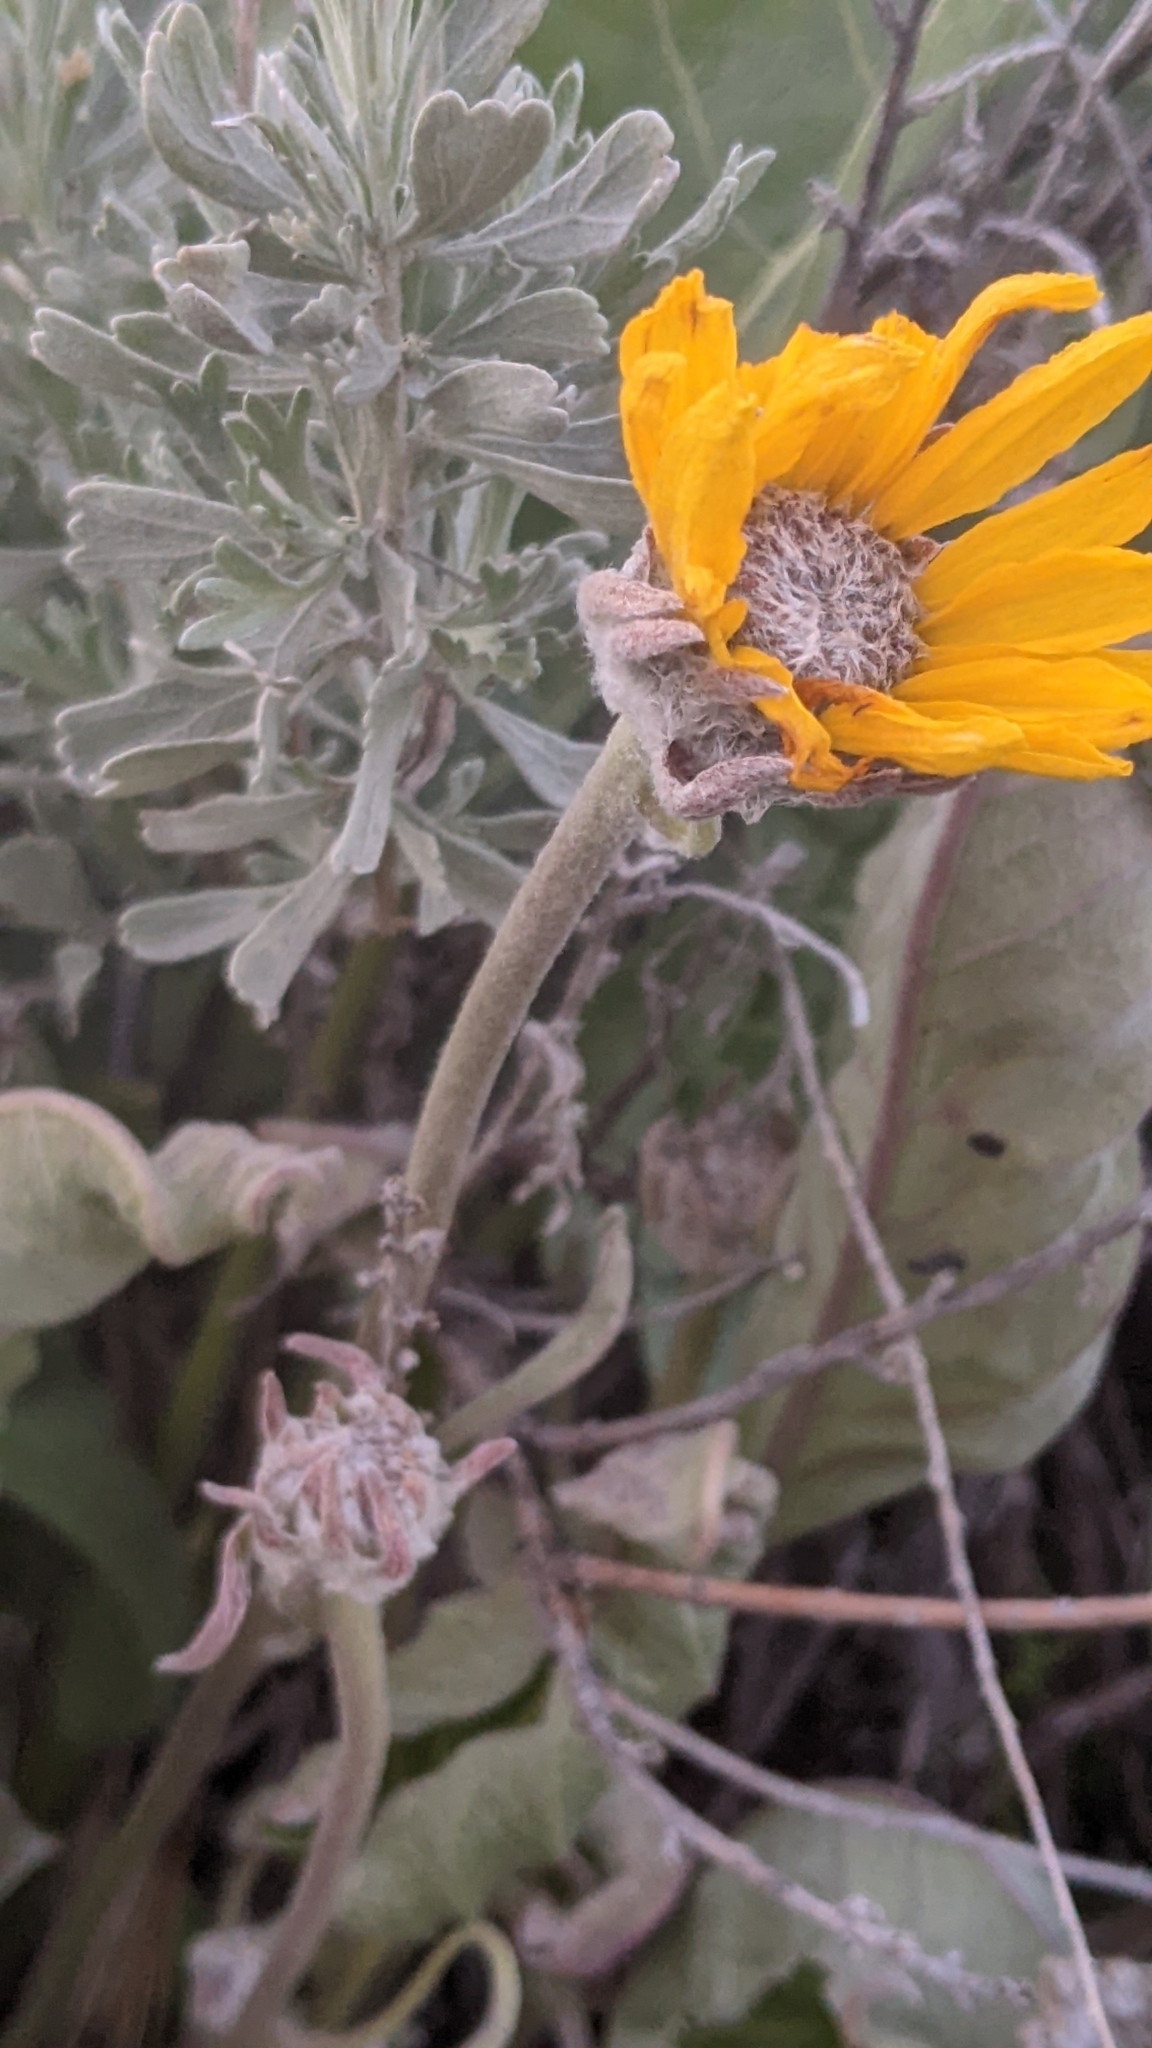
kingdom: Plantae
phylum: Tracheophyta
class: Magnoliopsida
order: Asterales
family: Asteraceae
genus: Wyethia
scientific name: Wyethia sagittata
